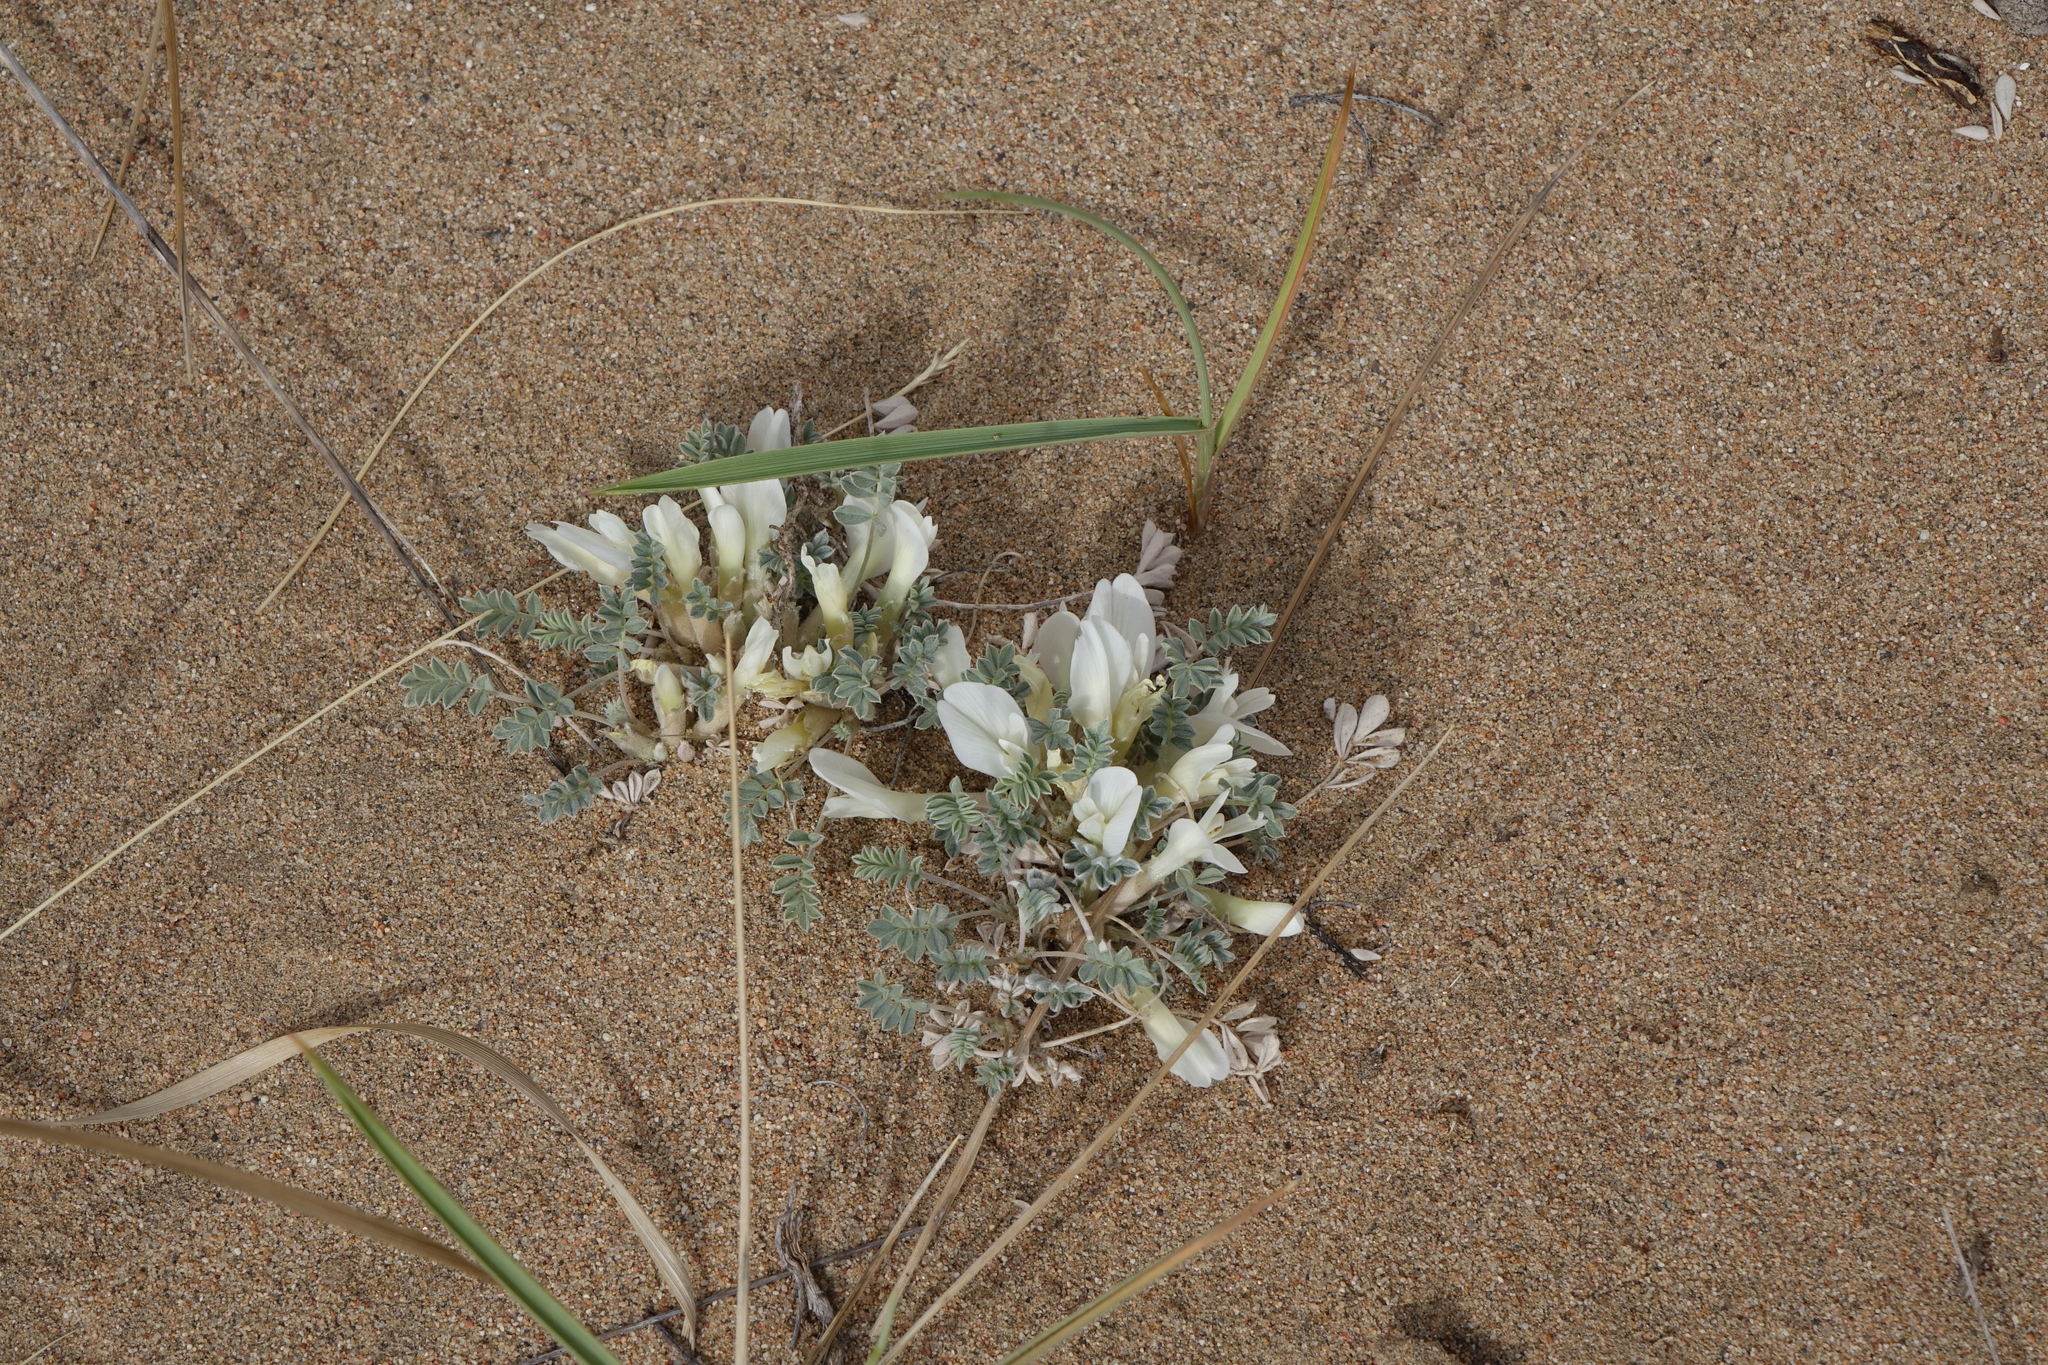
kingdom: Plantae
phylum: Tracheophyta
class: Magnoliopsida
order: Fabales
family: Fabaceae
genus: Astragalus
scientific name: Astragalus teskhemicus
